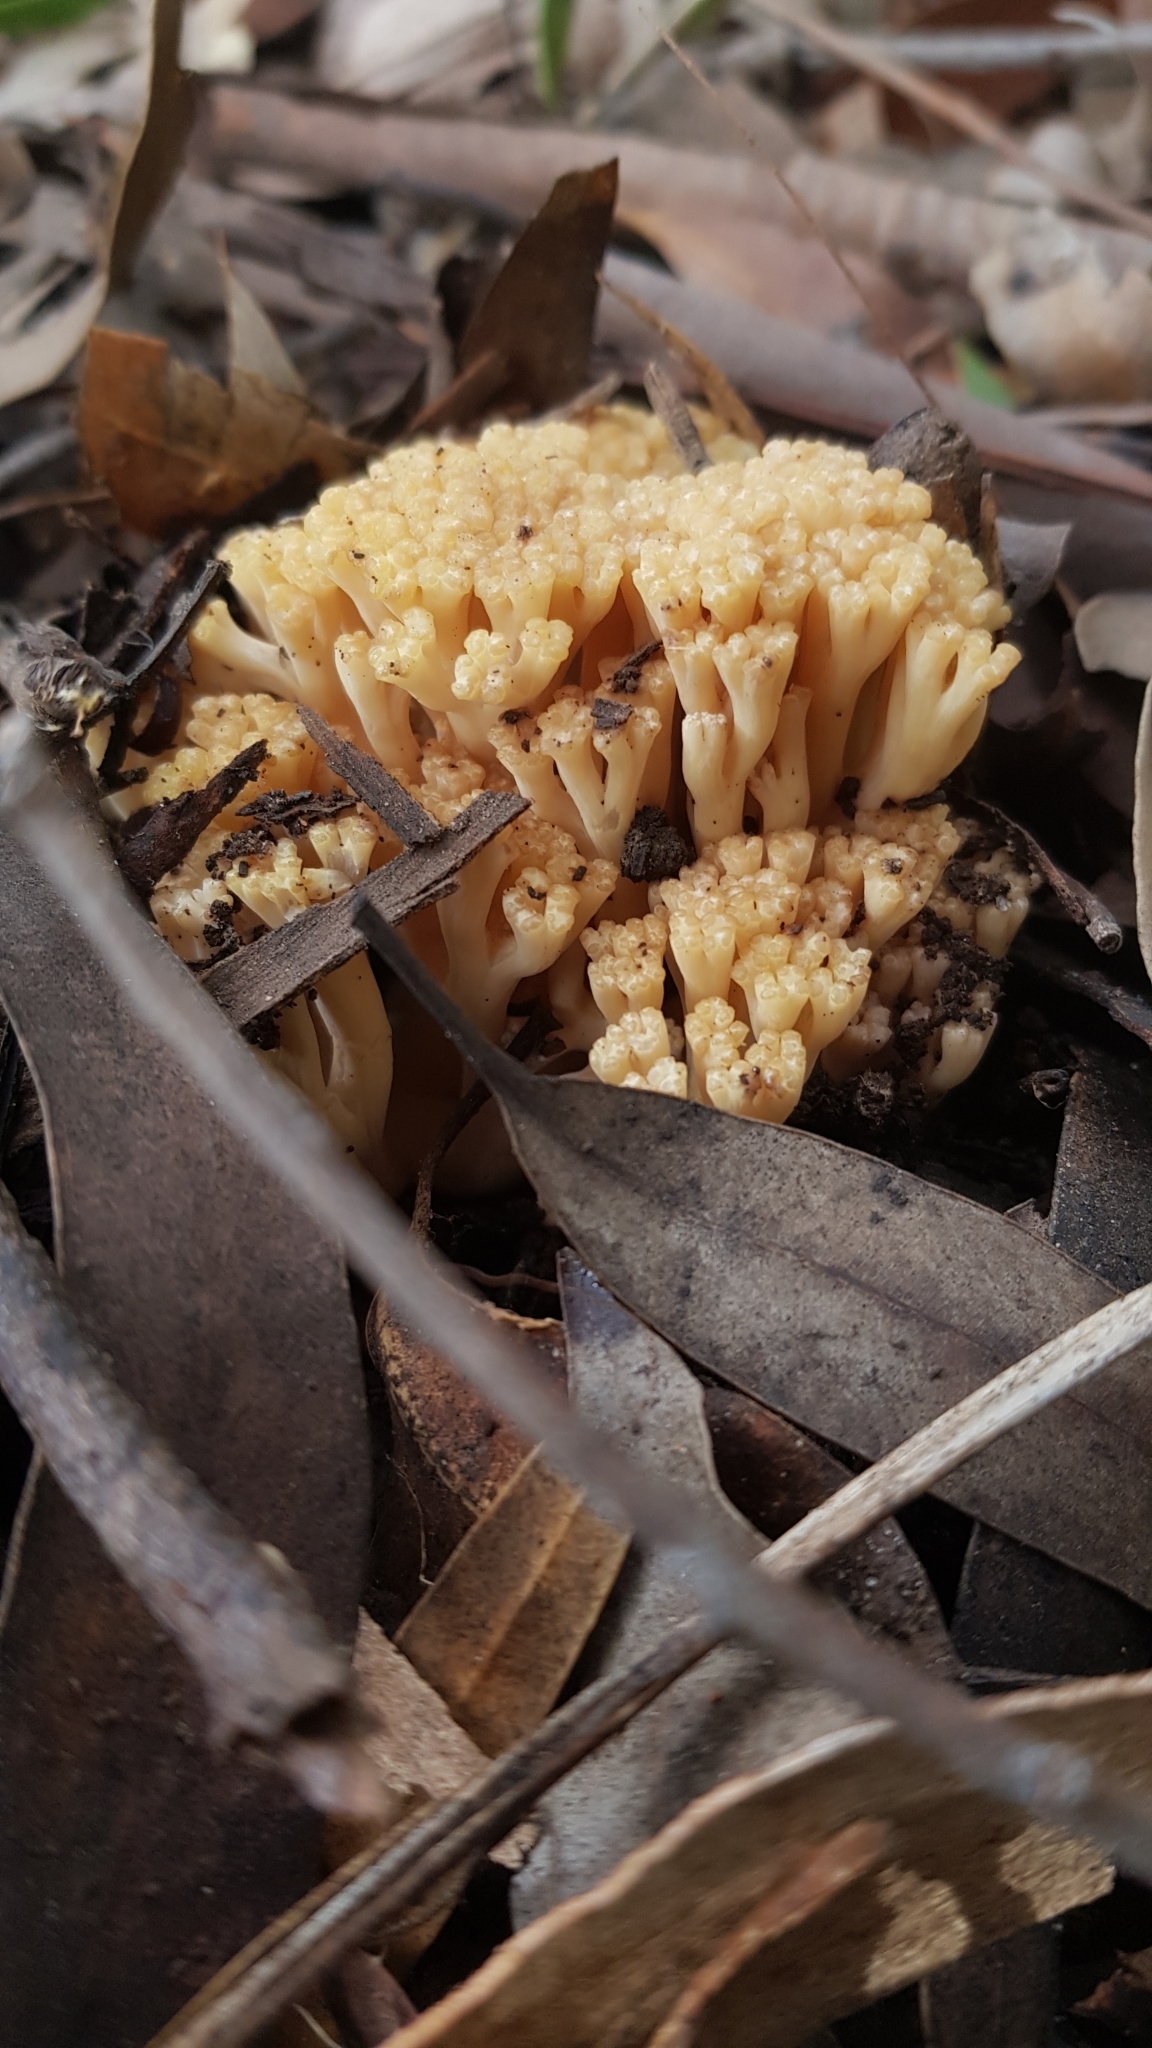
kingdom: Fungi
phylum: Basidiomycota
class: Agaricomycetes
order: Gomphales
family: Gomphaceae
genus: Ramaria
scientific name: Ramaria capitata
